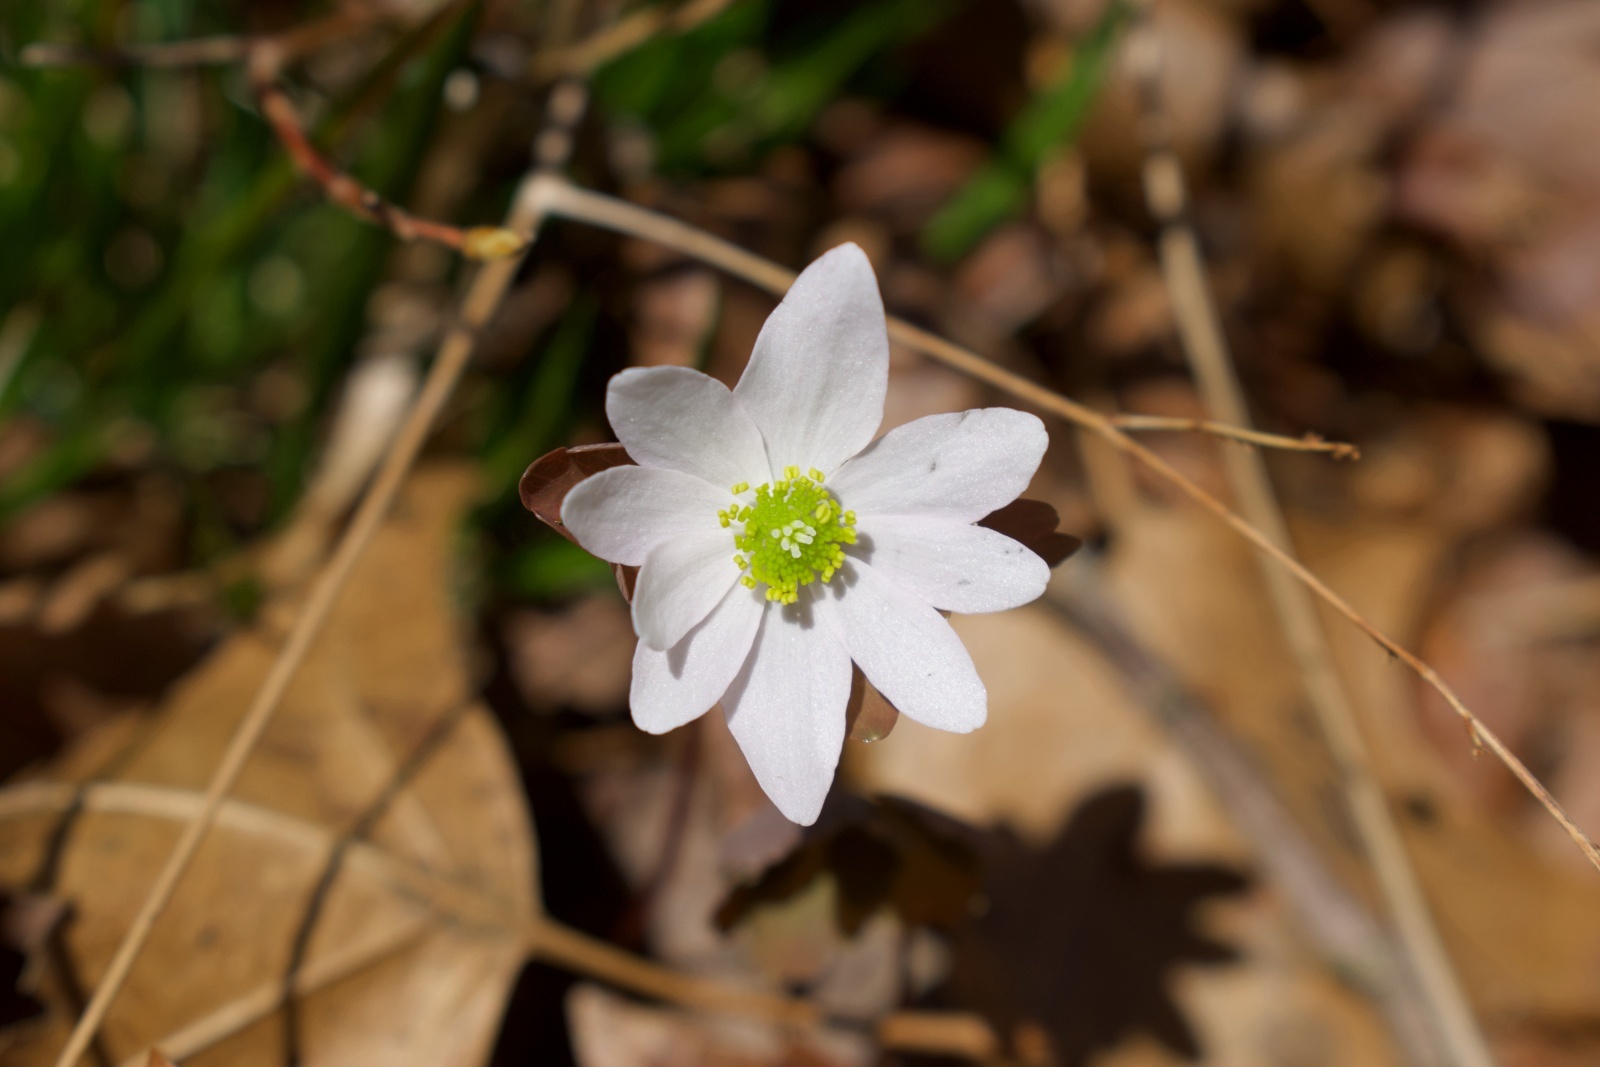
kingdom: Plantae
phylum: Tracheophyta
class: Magnoliopsida
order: Ranunculales
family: Ranunculaceae
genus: Thalictrum
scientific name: Thalictrum thalictroides
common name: Rue-anemone
